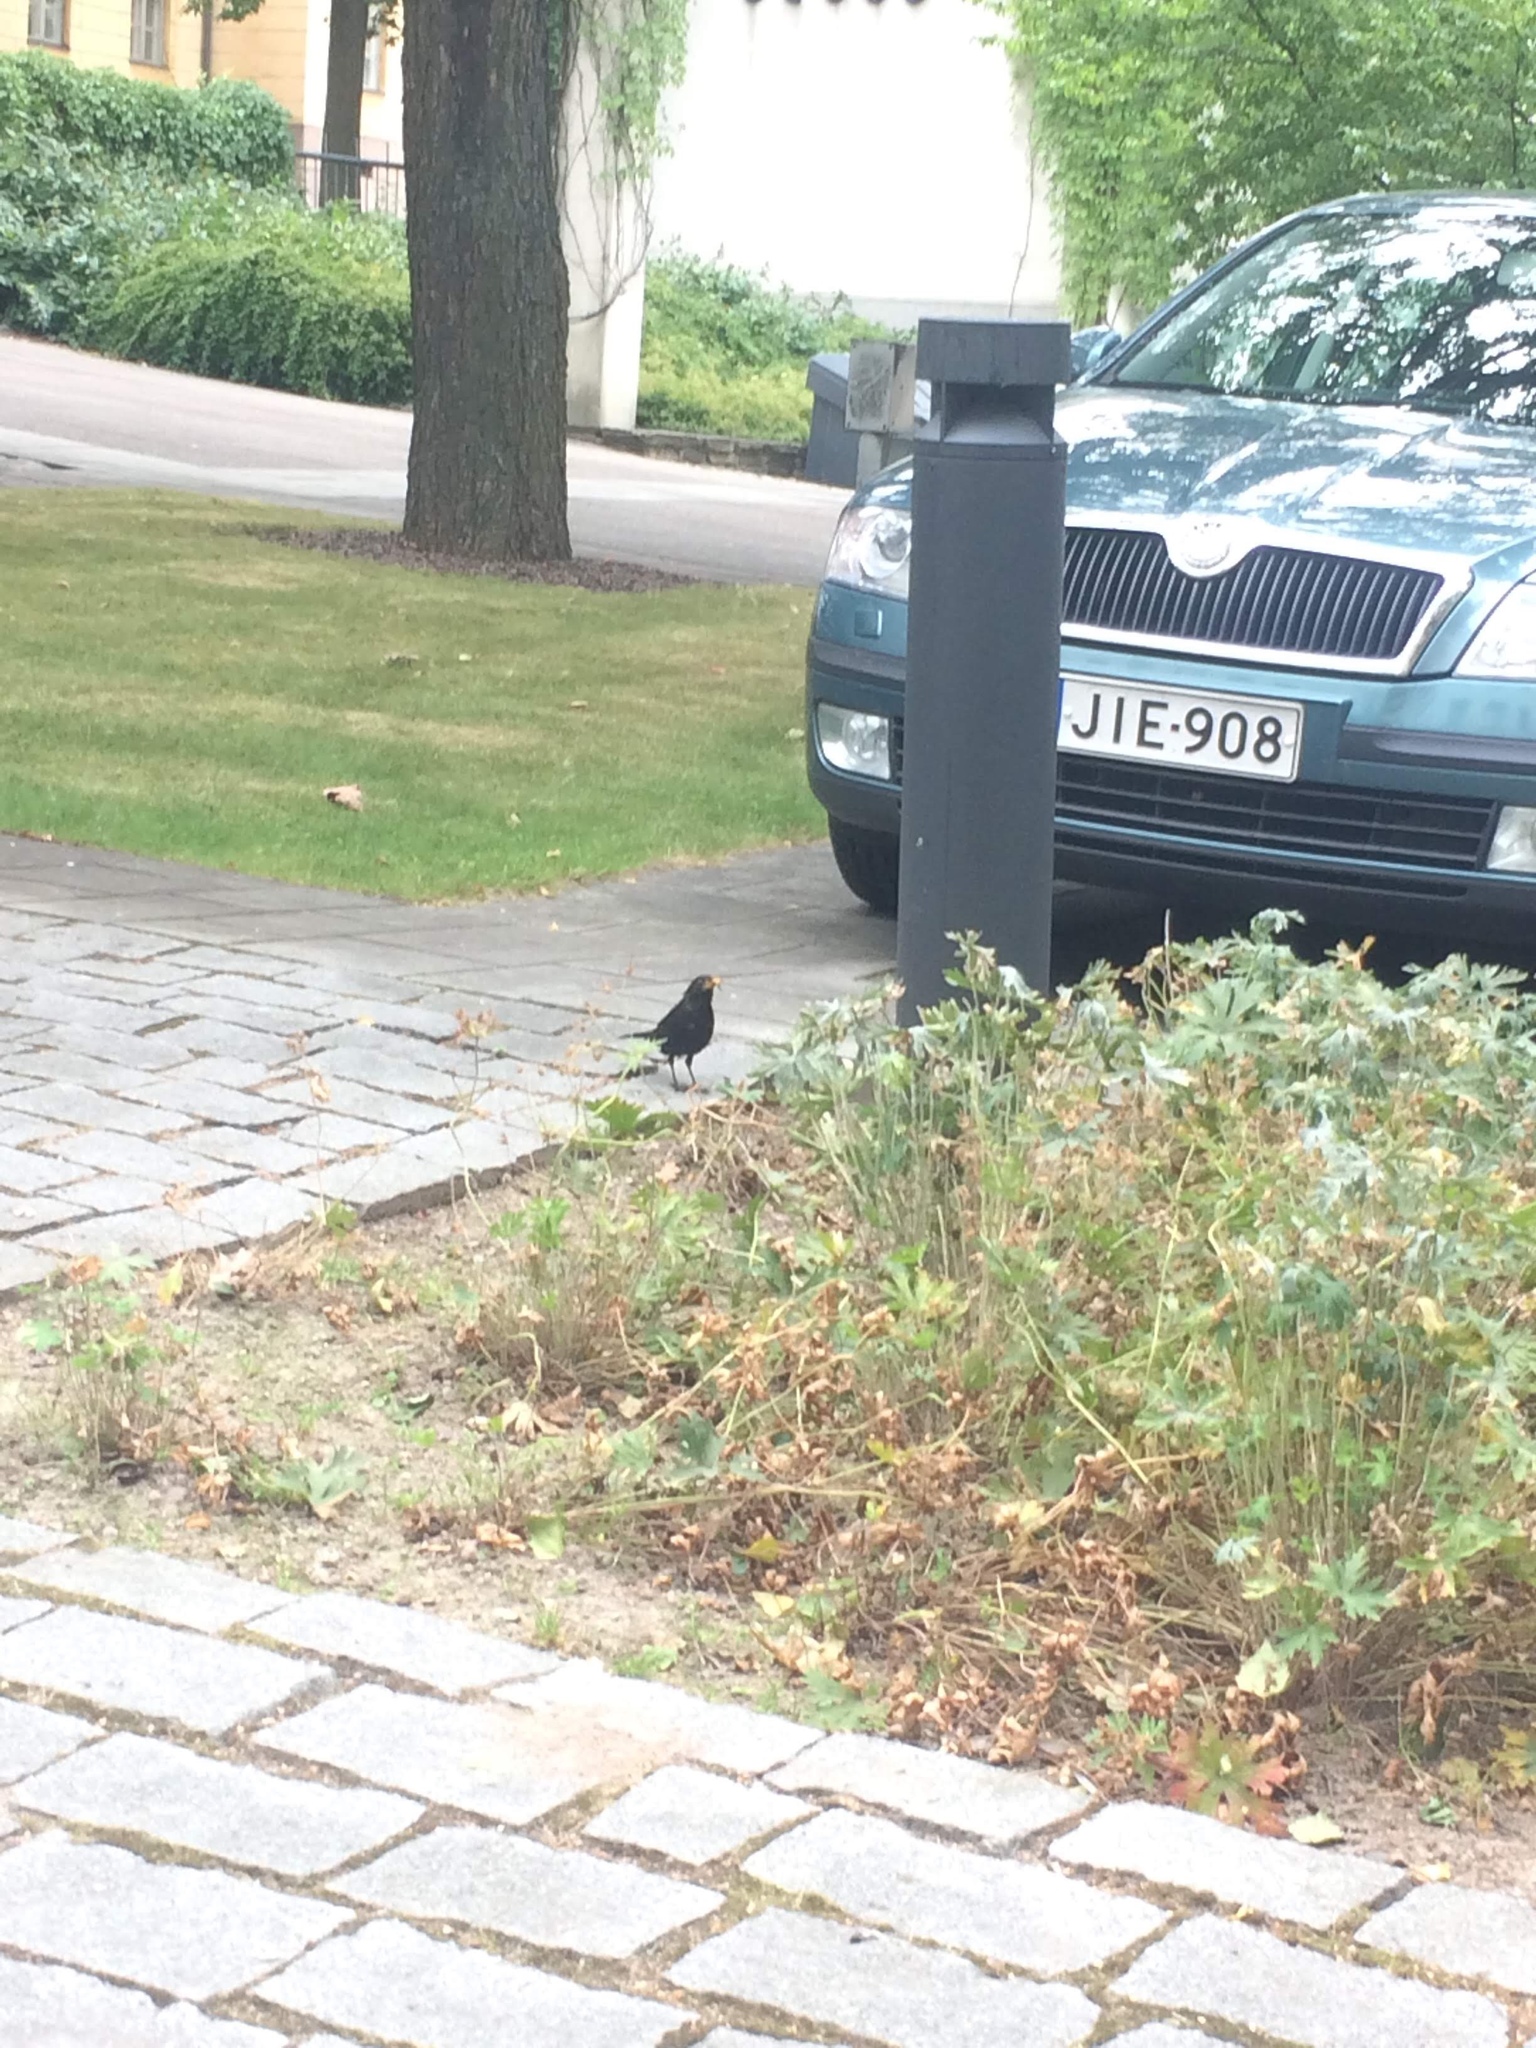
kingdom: Animalia
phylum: Chordata
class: Aves
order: Passeriformes
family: Turdidae
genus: Turdus
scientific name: Turdus merula
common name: Common blackbird
